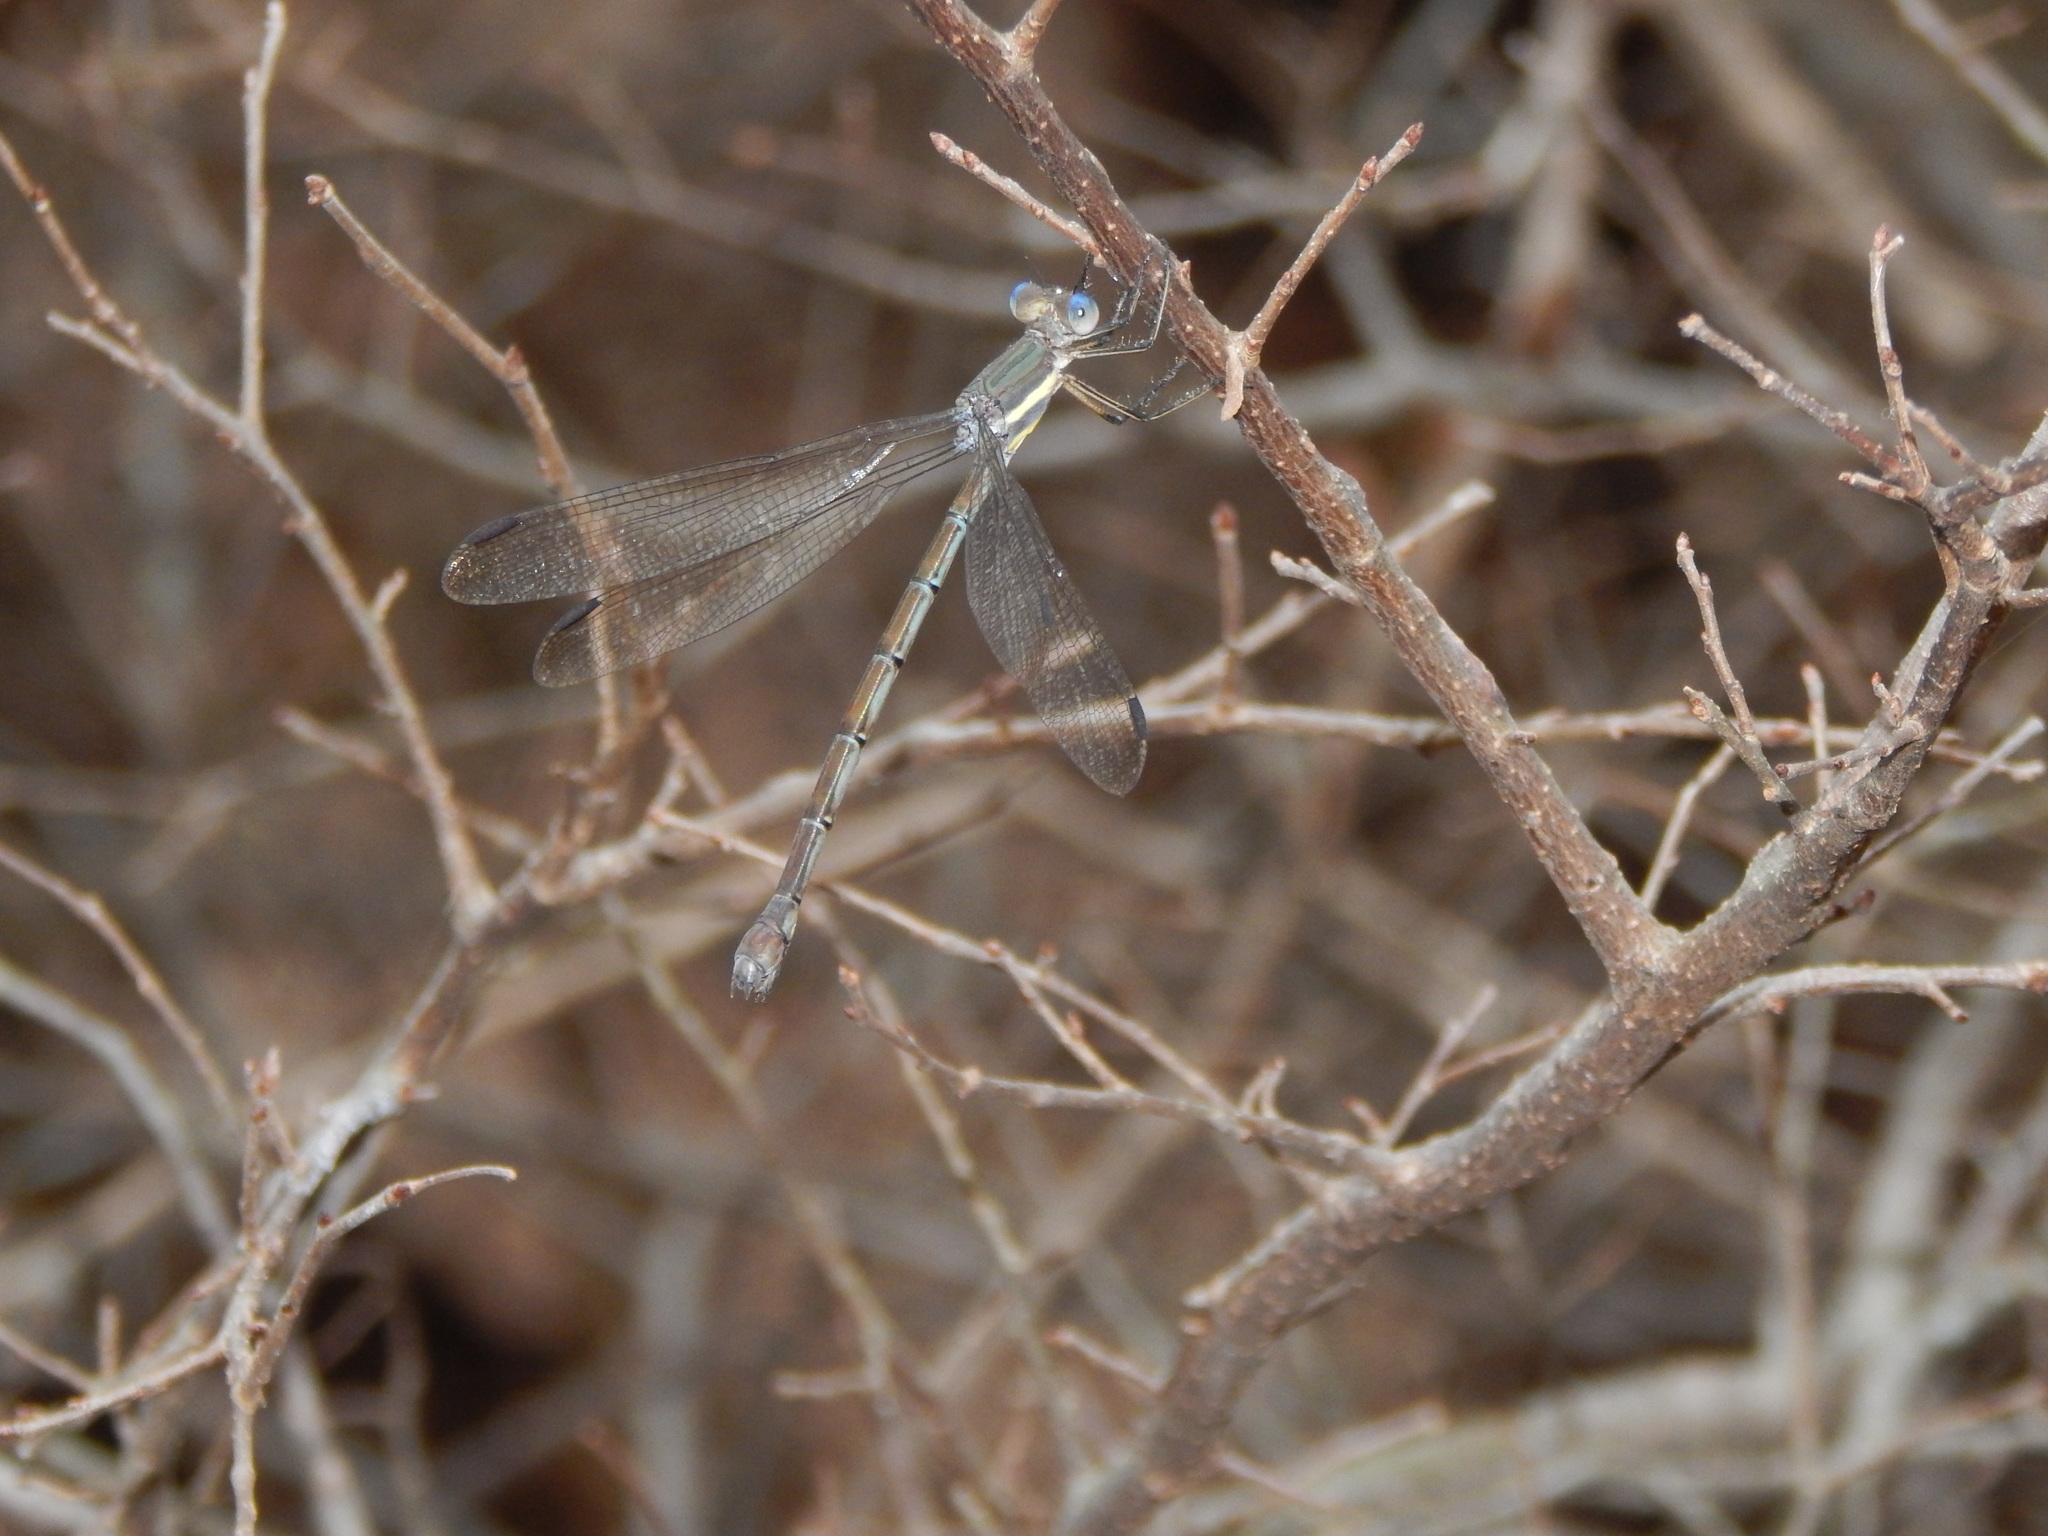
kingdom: Animalia
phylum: Arthropoda
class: Insecta
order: Odonata
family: Lestidae
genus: Archilestes
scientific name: Archilestes grandis
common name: Great spreadwing
